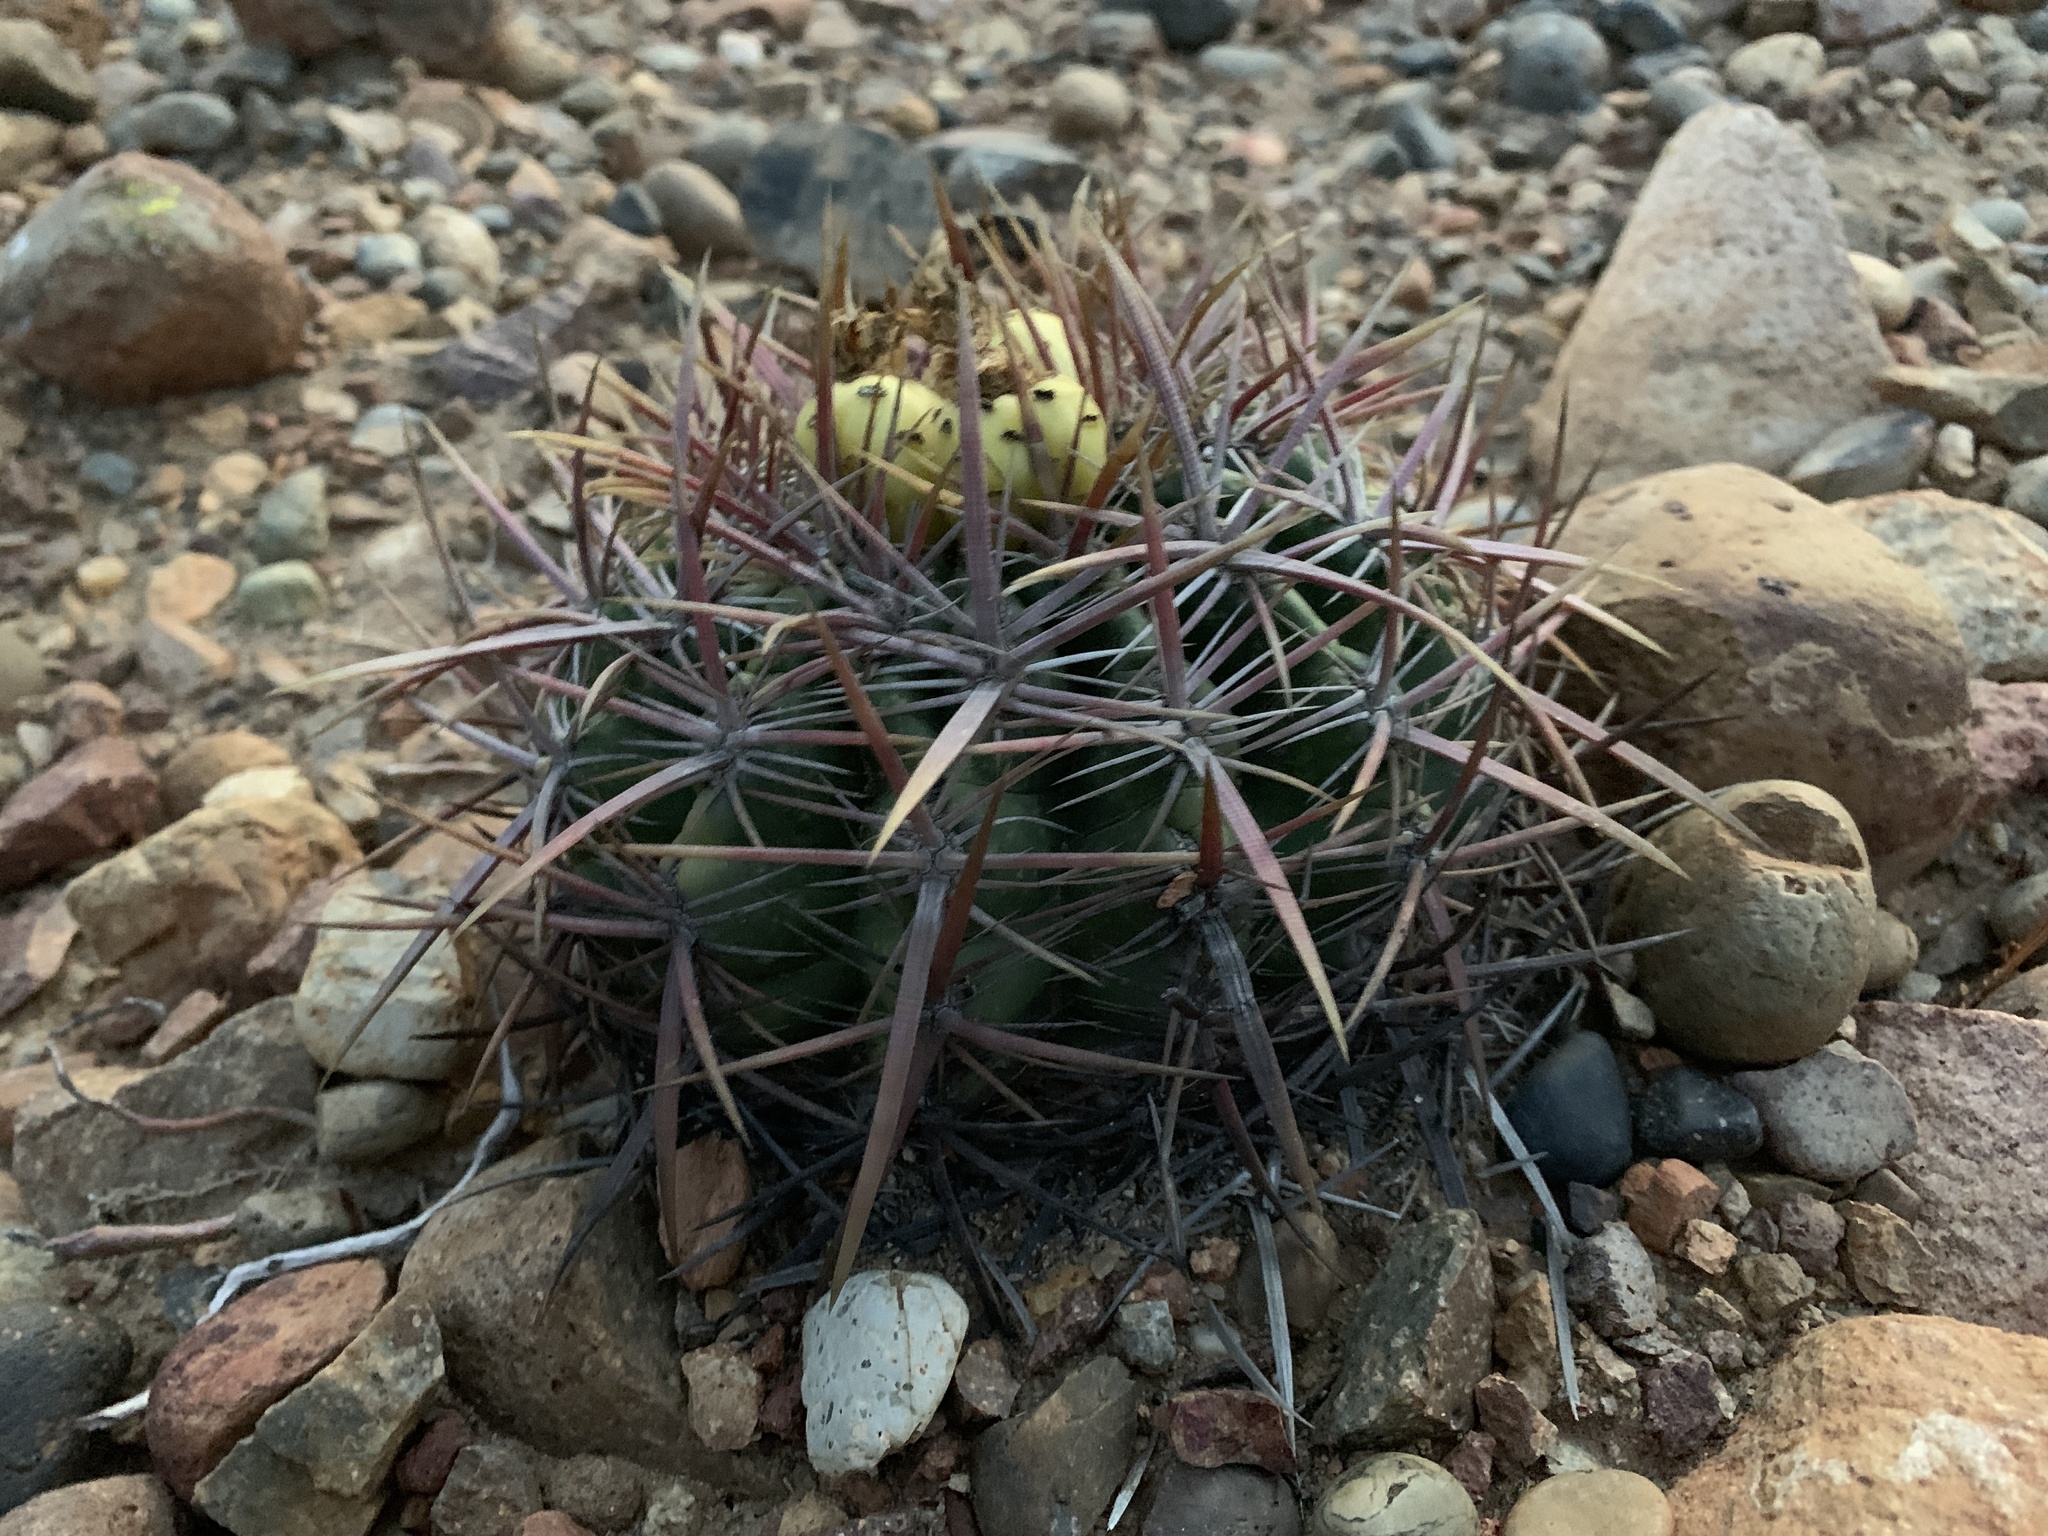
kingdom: Plantae
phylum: Tracheophyta
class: Magnoliopsida
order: Caryophyllales
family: Cactaceae
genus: Ferocactus
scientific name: Ferocactus viridescens
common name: San diego barrel cactus
